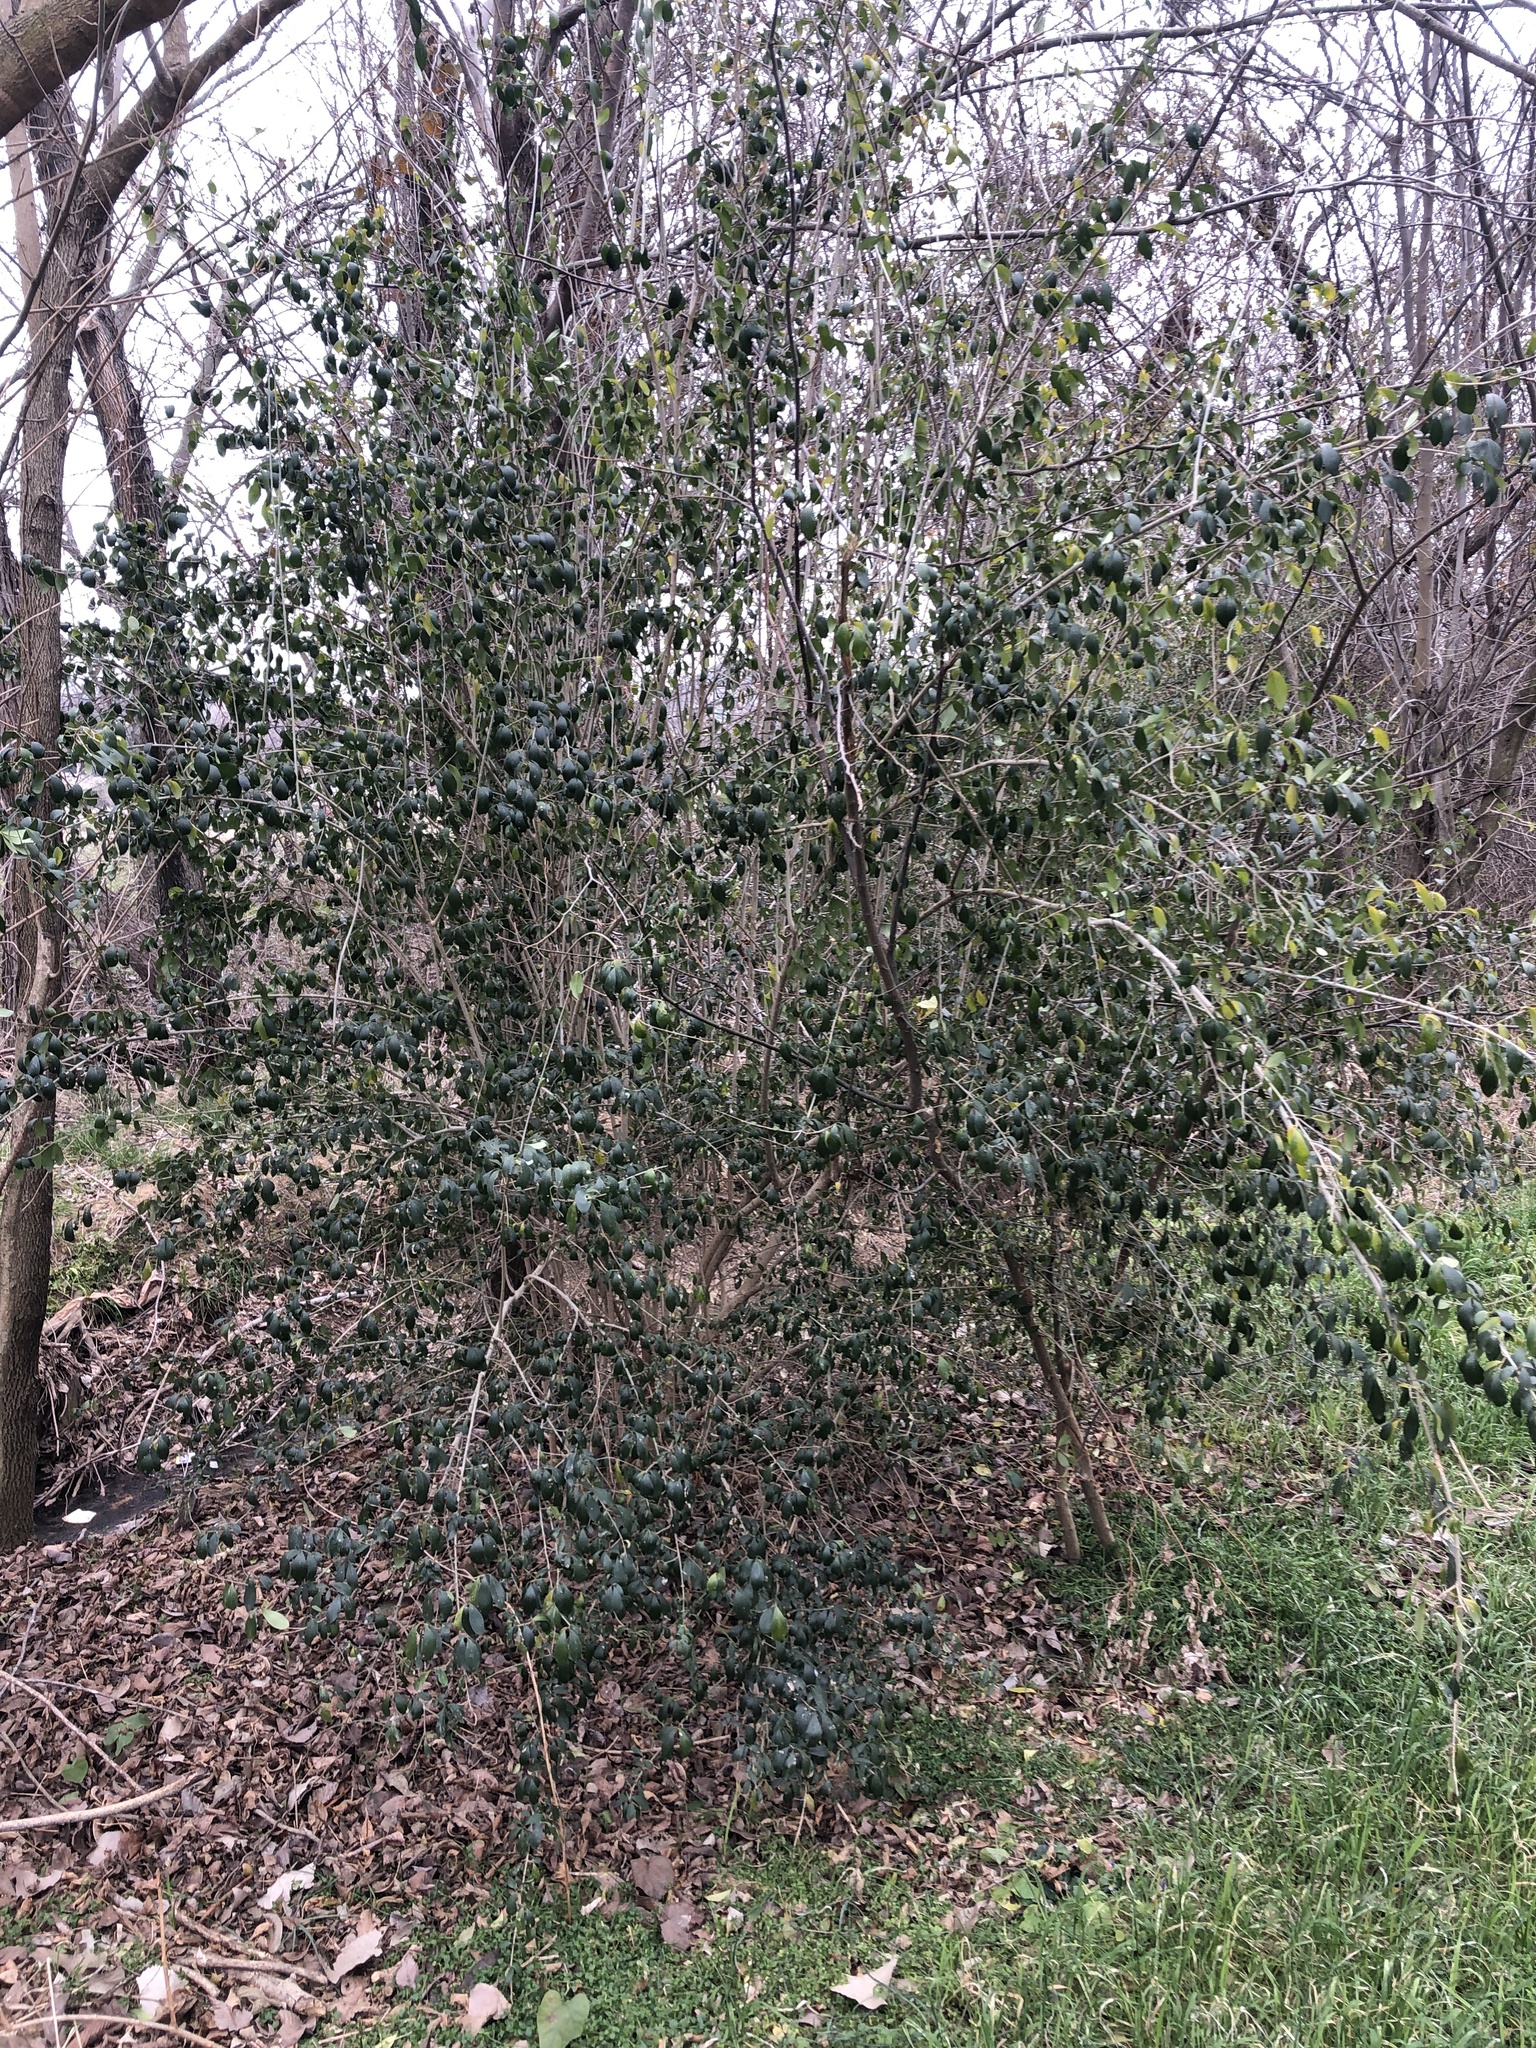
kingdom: Plantae
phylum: Tracheophyta
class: Magnoliopsida
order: Lamiales
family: Oleaceae
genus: Ligustrum
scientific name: Ligustrum quihoui
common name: Waxyleaf privet
